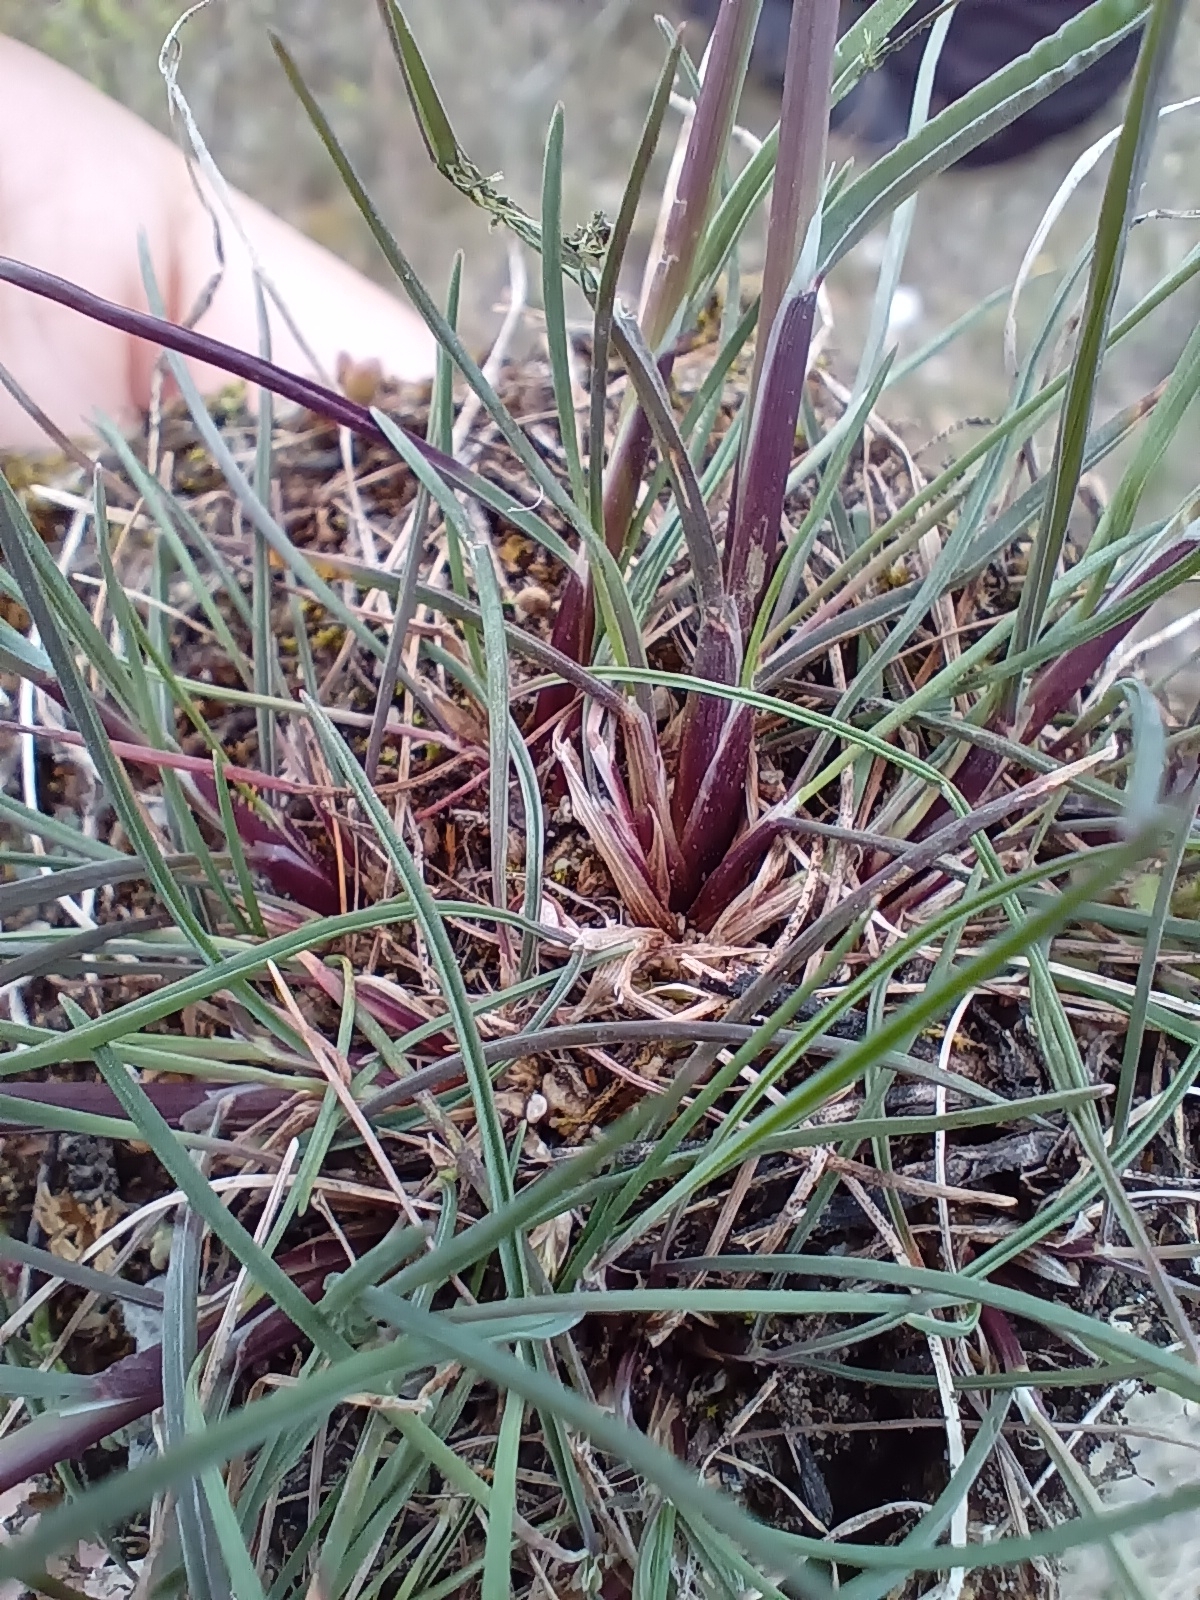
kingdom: Plantae
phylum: Tracheophyta
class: Liliopsida
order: Poales
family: Poaceae
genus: Poa
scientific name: Poa bulbosa
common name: Bulbous bluegrass
